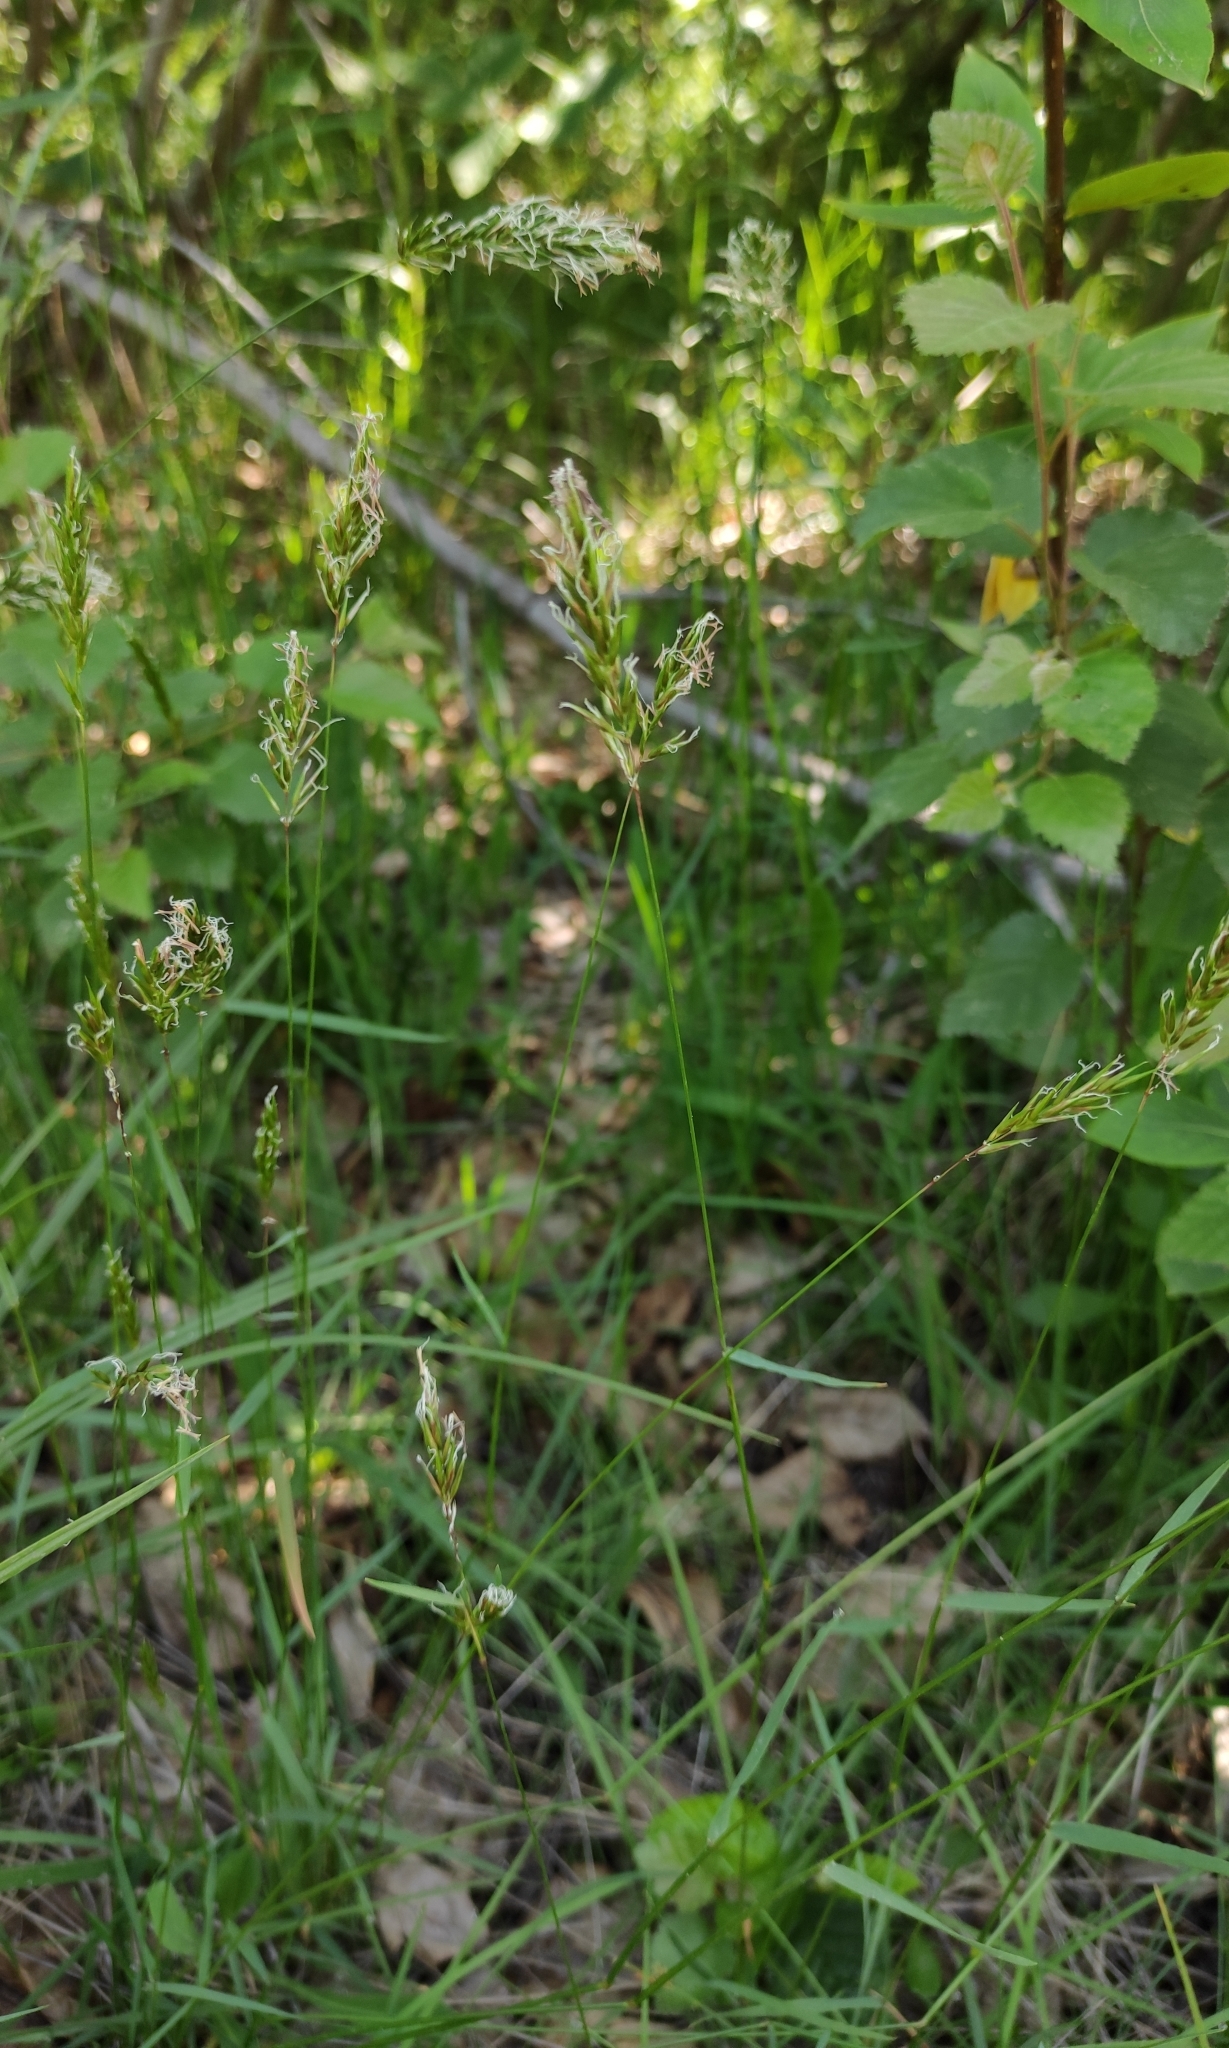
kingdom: Plantae
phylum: Tracheophyta
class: Liliopsida
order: Poales
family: Poaceae
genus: Anthoxanthum
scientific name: Anthoxanthum odoratum
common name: Sweet vernalgrass
